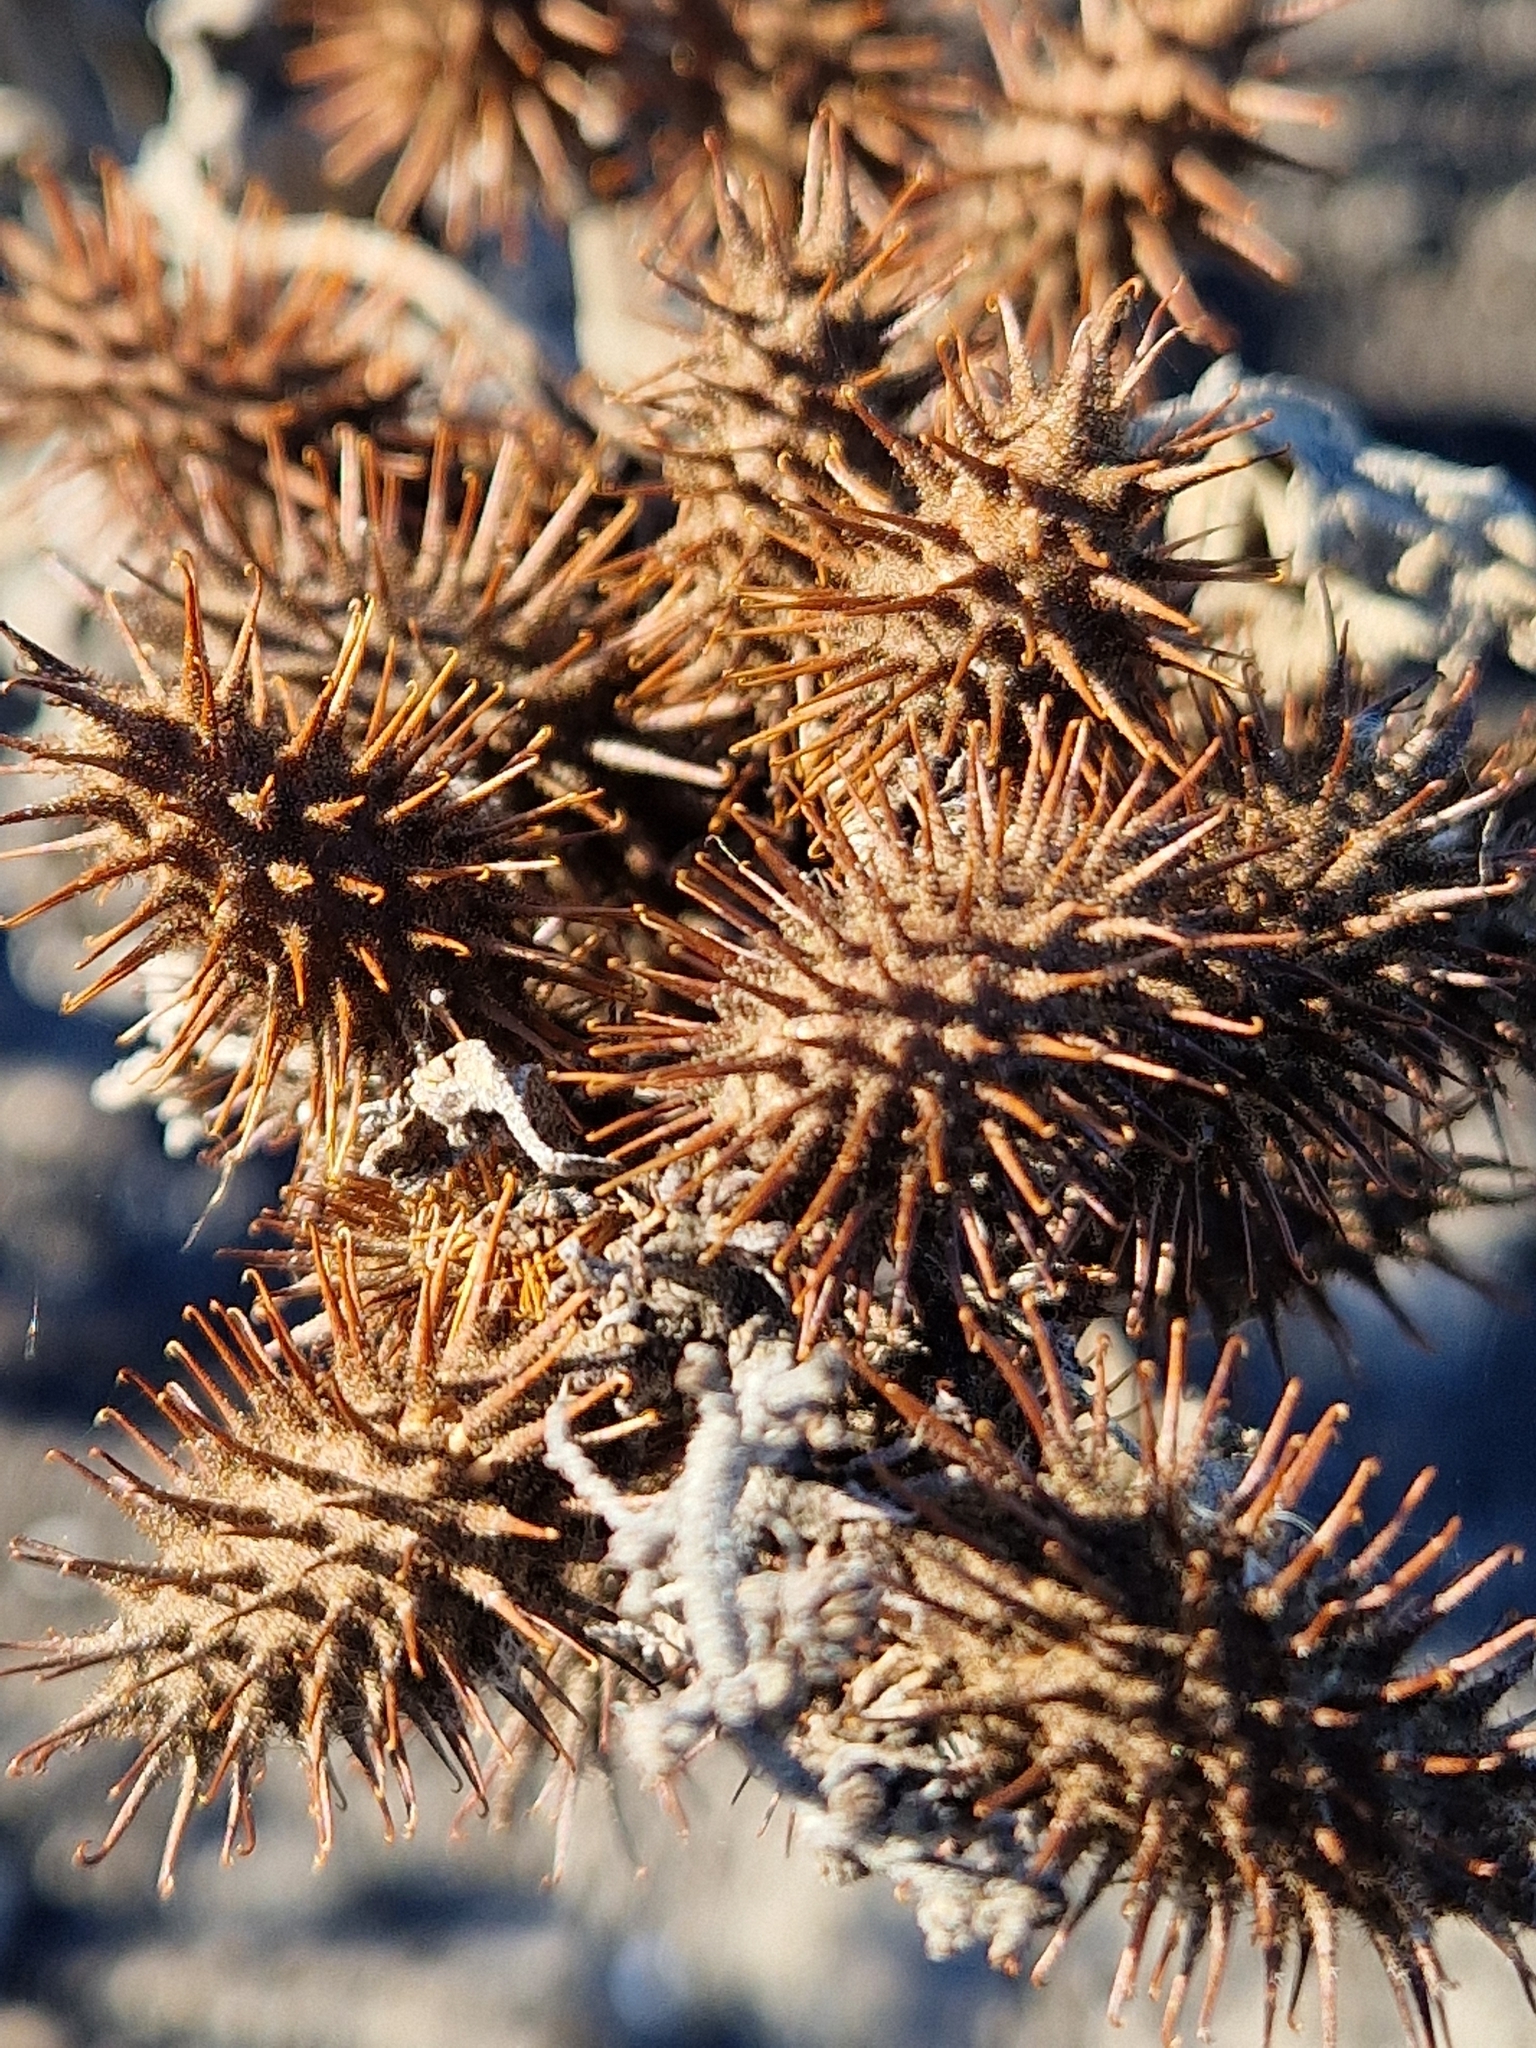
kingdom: Plantae
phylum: Tracheophyta
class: Magnoliopsida
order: Asterales
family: Asteraceae
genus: Xanthium
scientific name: Xanthium strumarium
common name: Rough cocklebur
